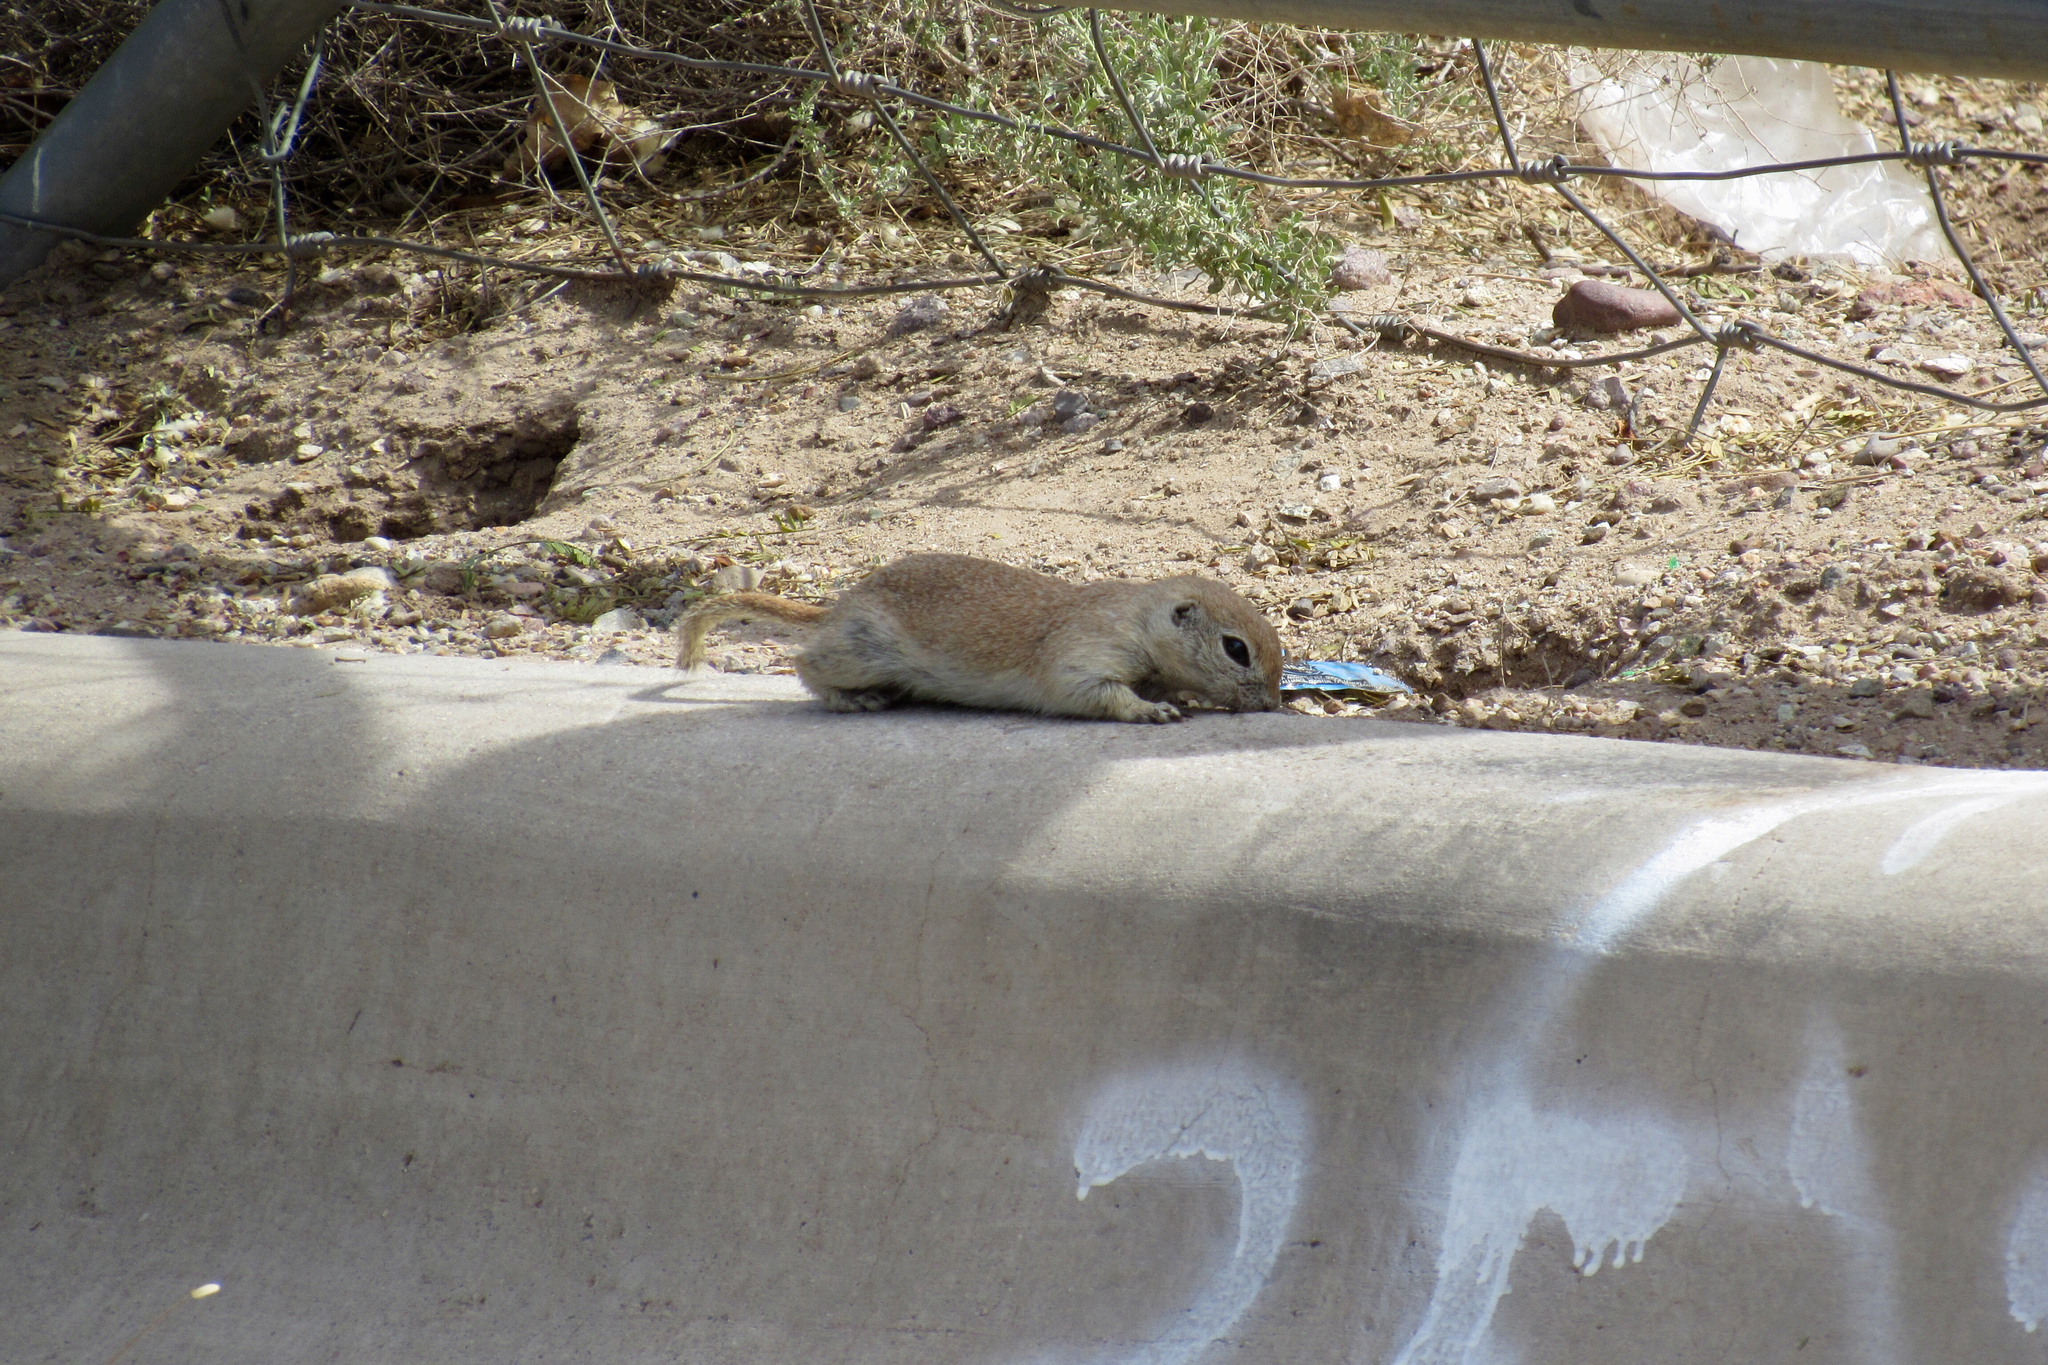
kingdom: Animalia
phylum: Chordata
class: Mammalia
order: Rodentia
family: Sciuridae
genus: Xerospermophilus
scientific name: Xerospermophilus tereticaudus
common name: Round-tailed ground squirrel
